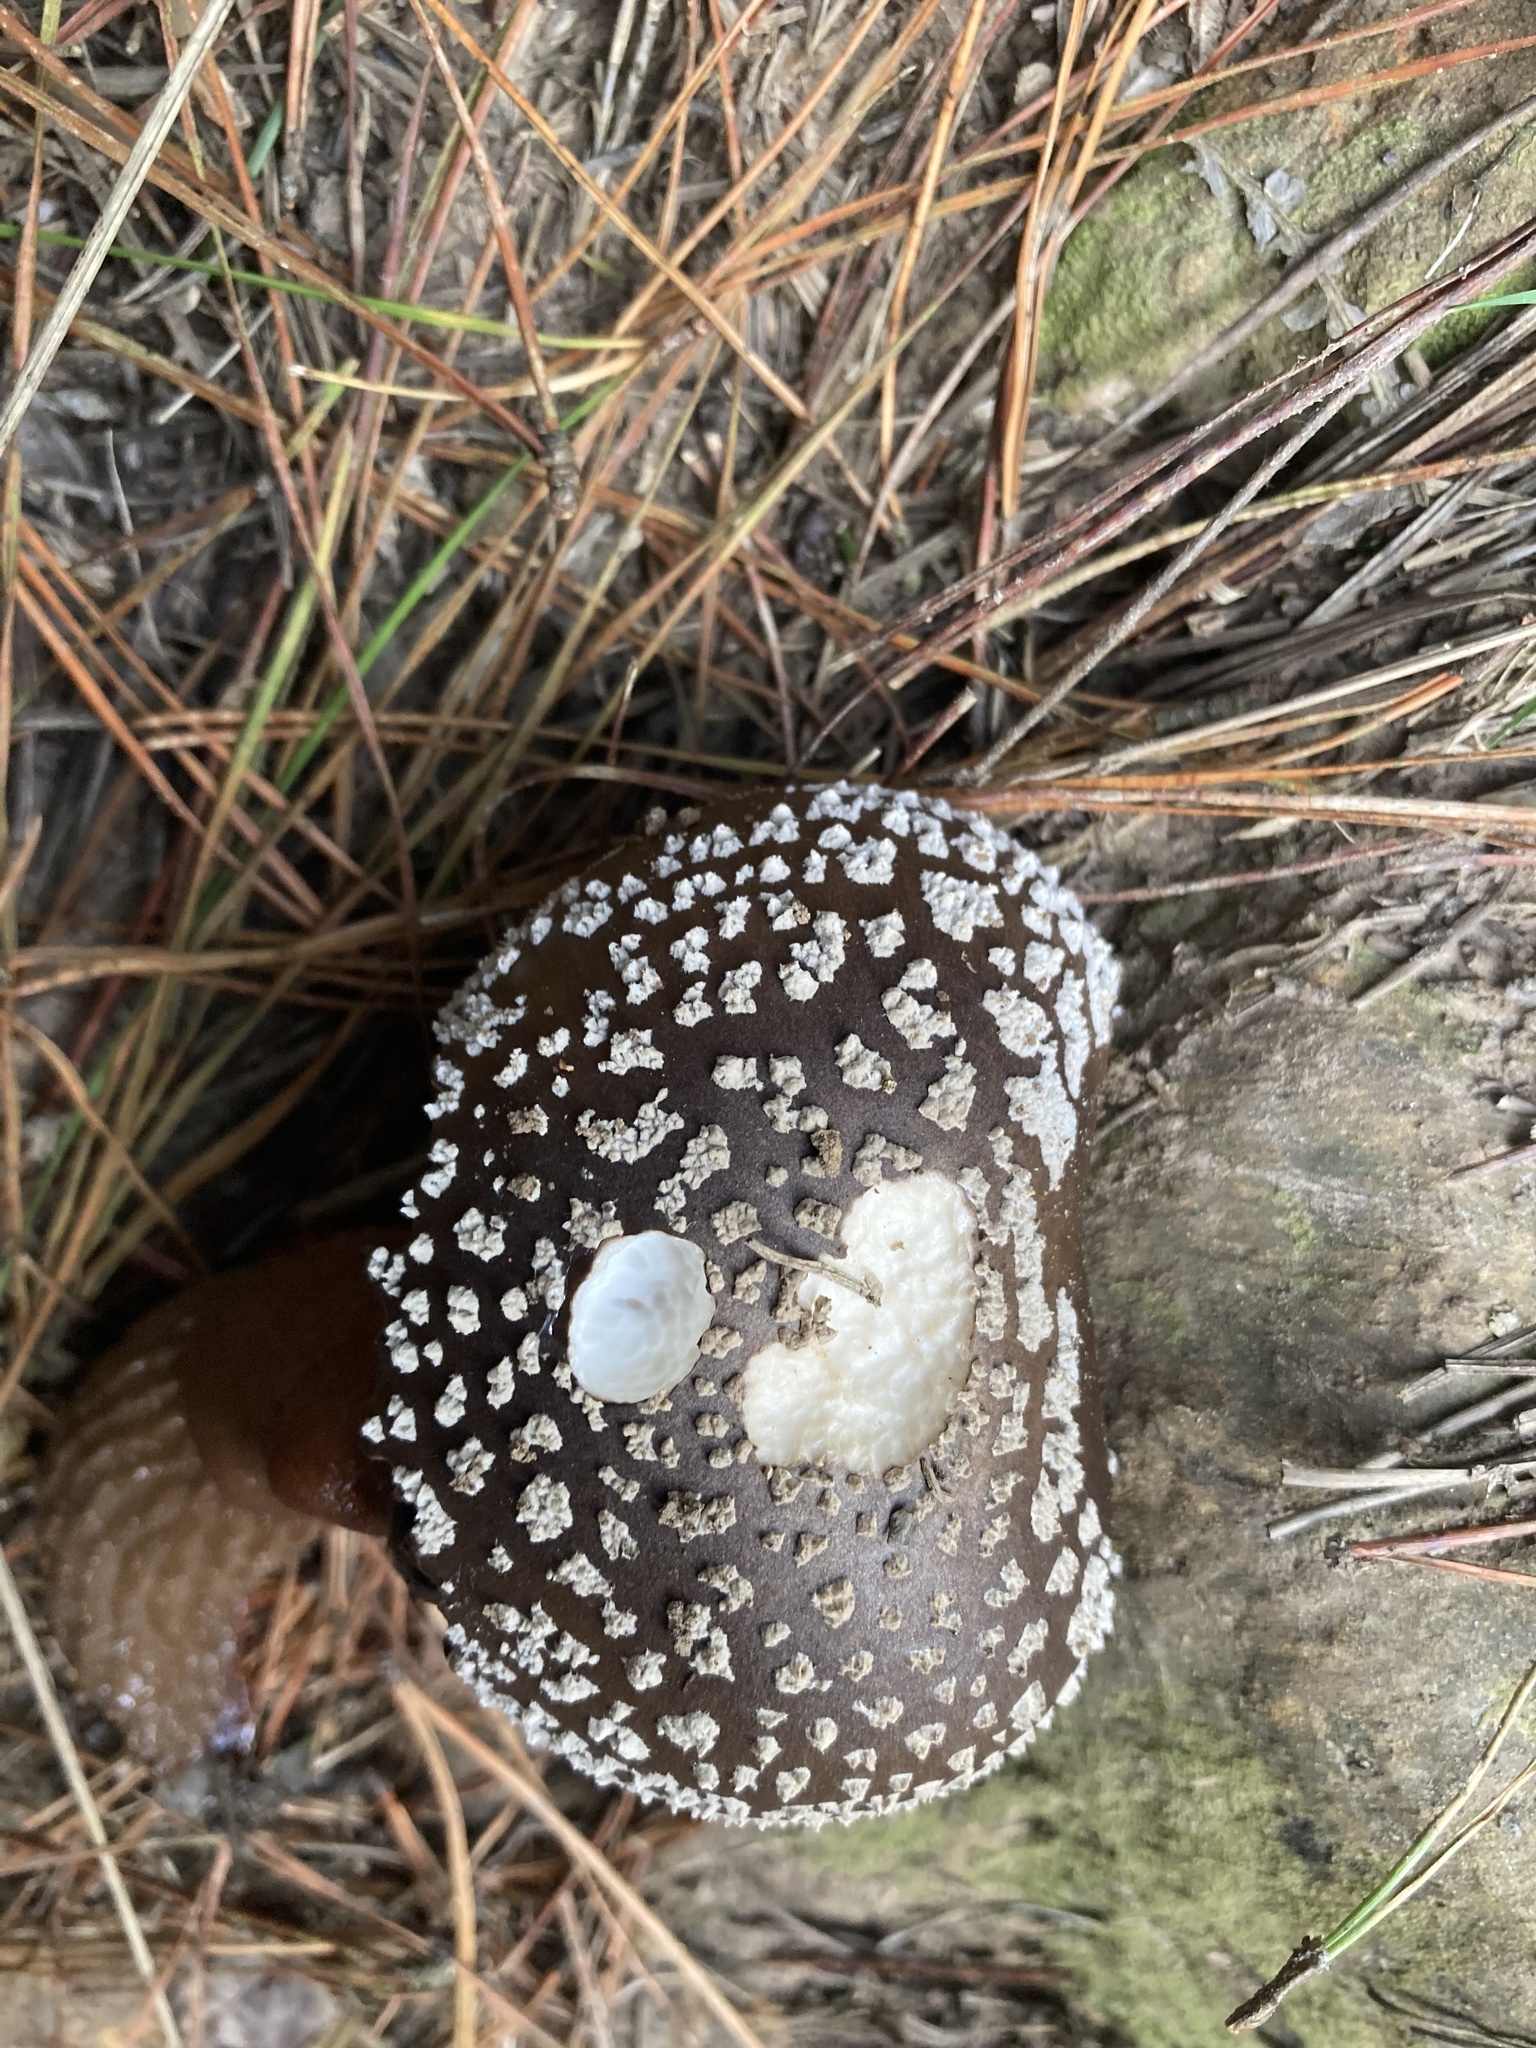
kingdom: Fungi
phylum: Basidiomycota
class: Agaricomycetes
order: Agaricales
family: Amanitaceae
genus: Amanita
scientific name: Amanita excelsa
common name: European false blusher
